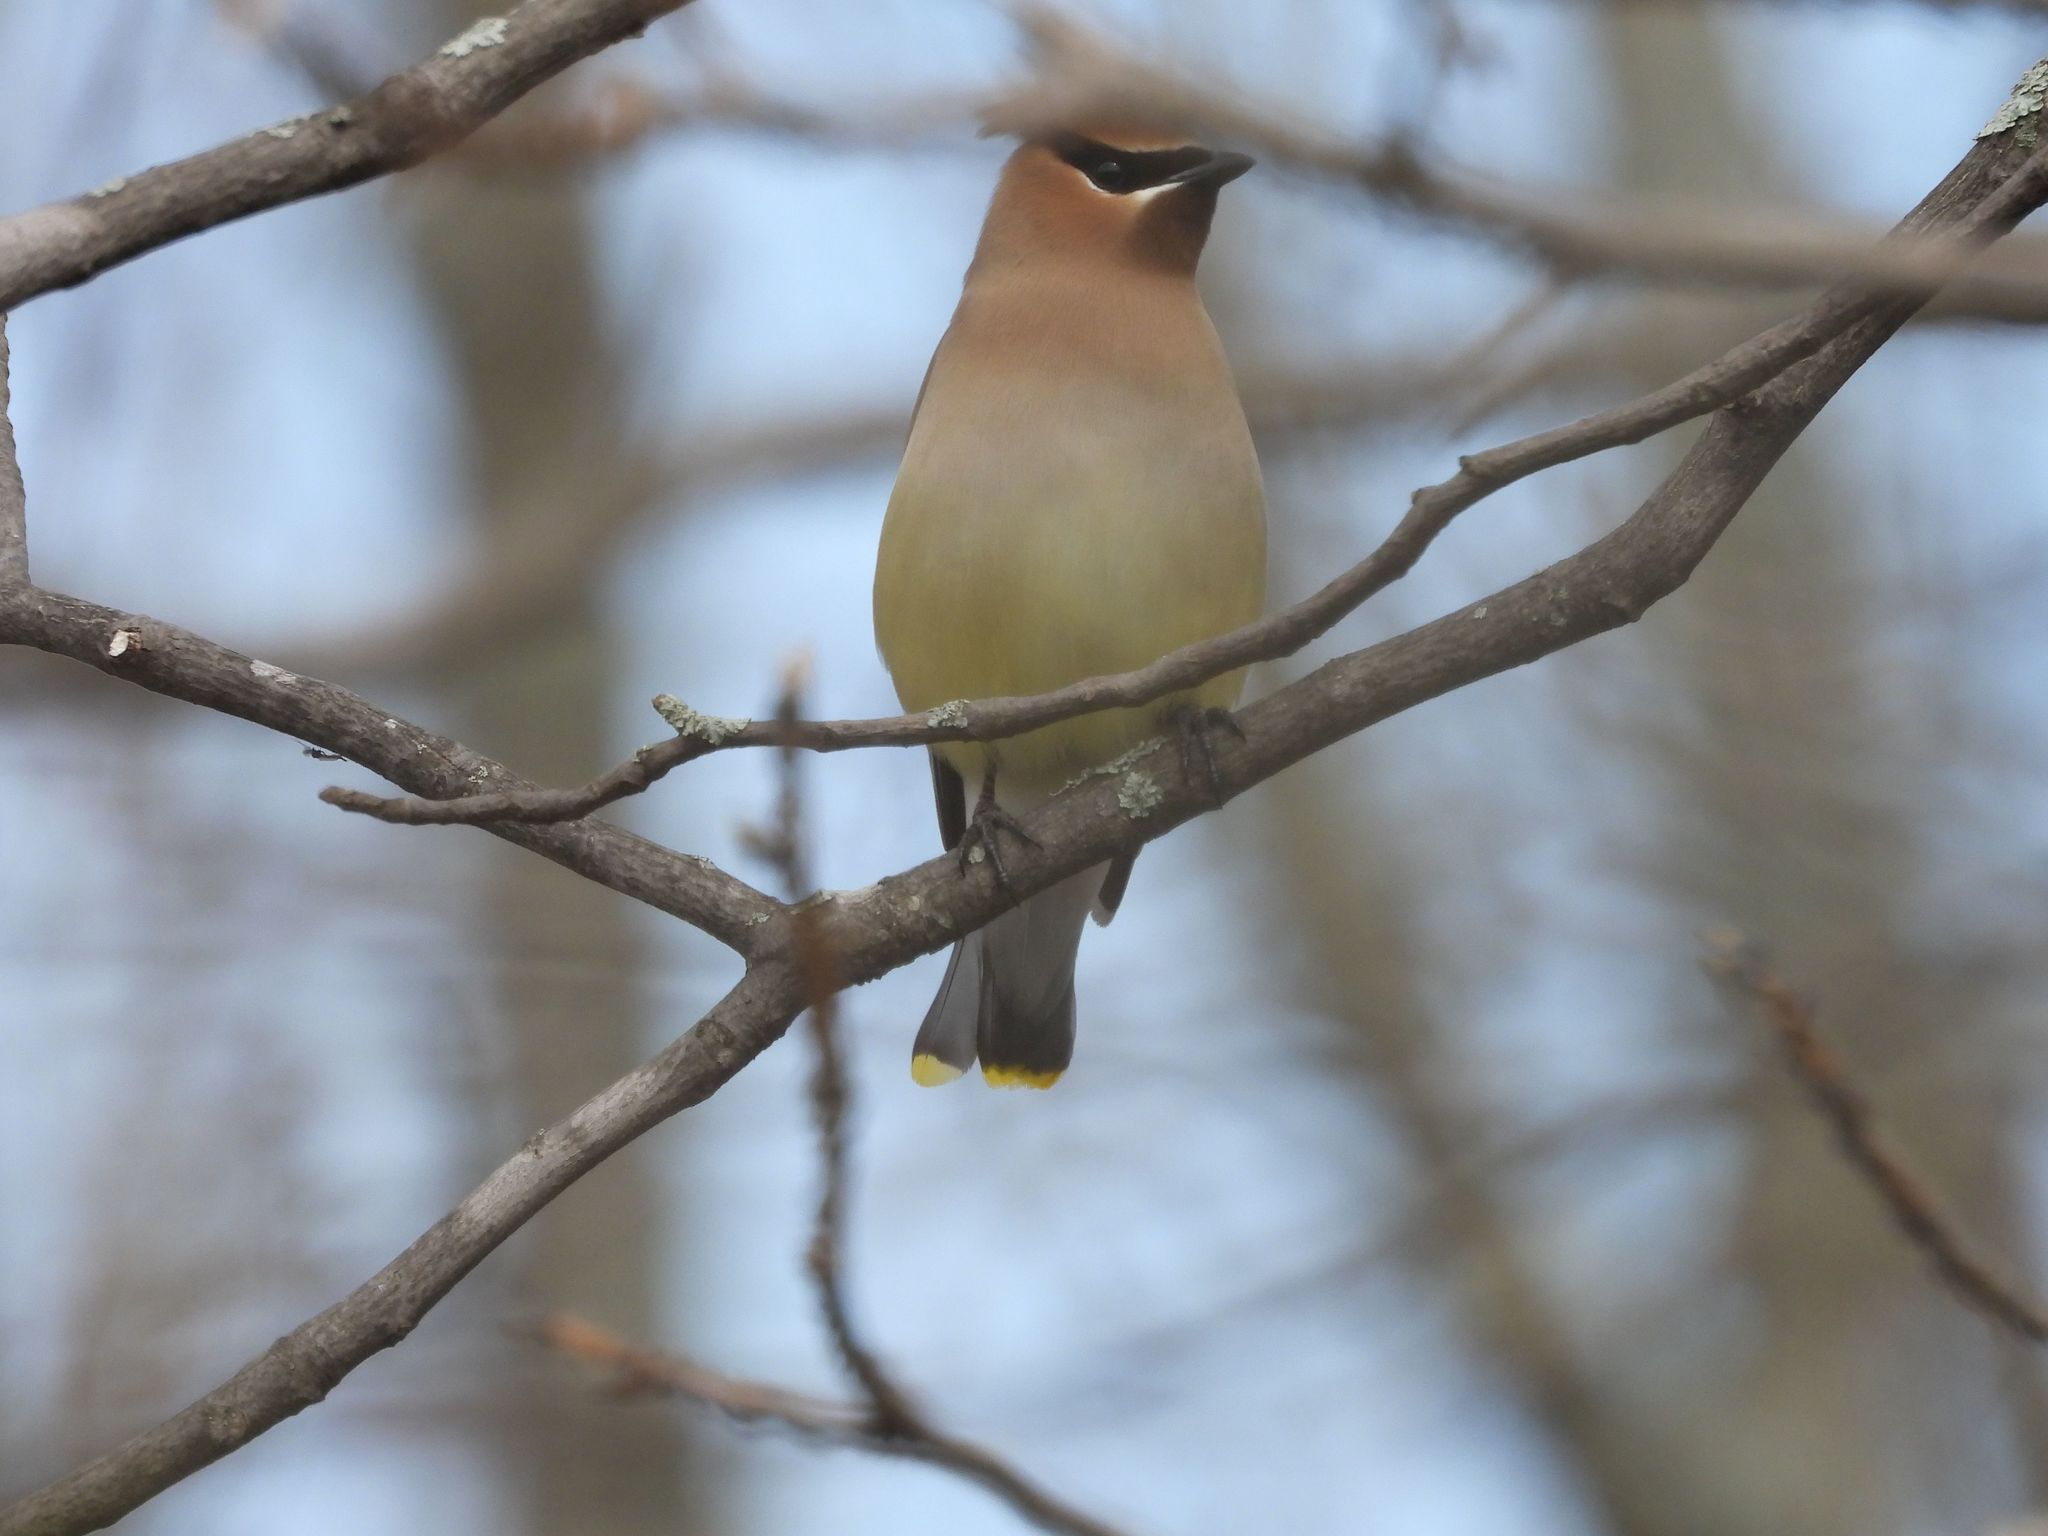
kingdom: Animalia
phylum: Chordata
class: Aves
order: Passeriformes
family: Bombycillidae
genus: Bombycilla
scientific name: Bombycilla cedrorum
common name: Cedar waxwing
